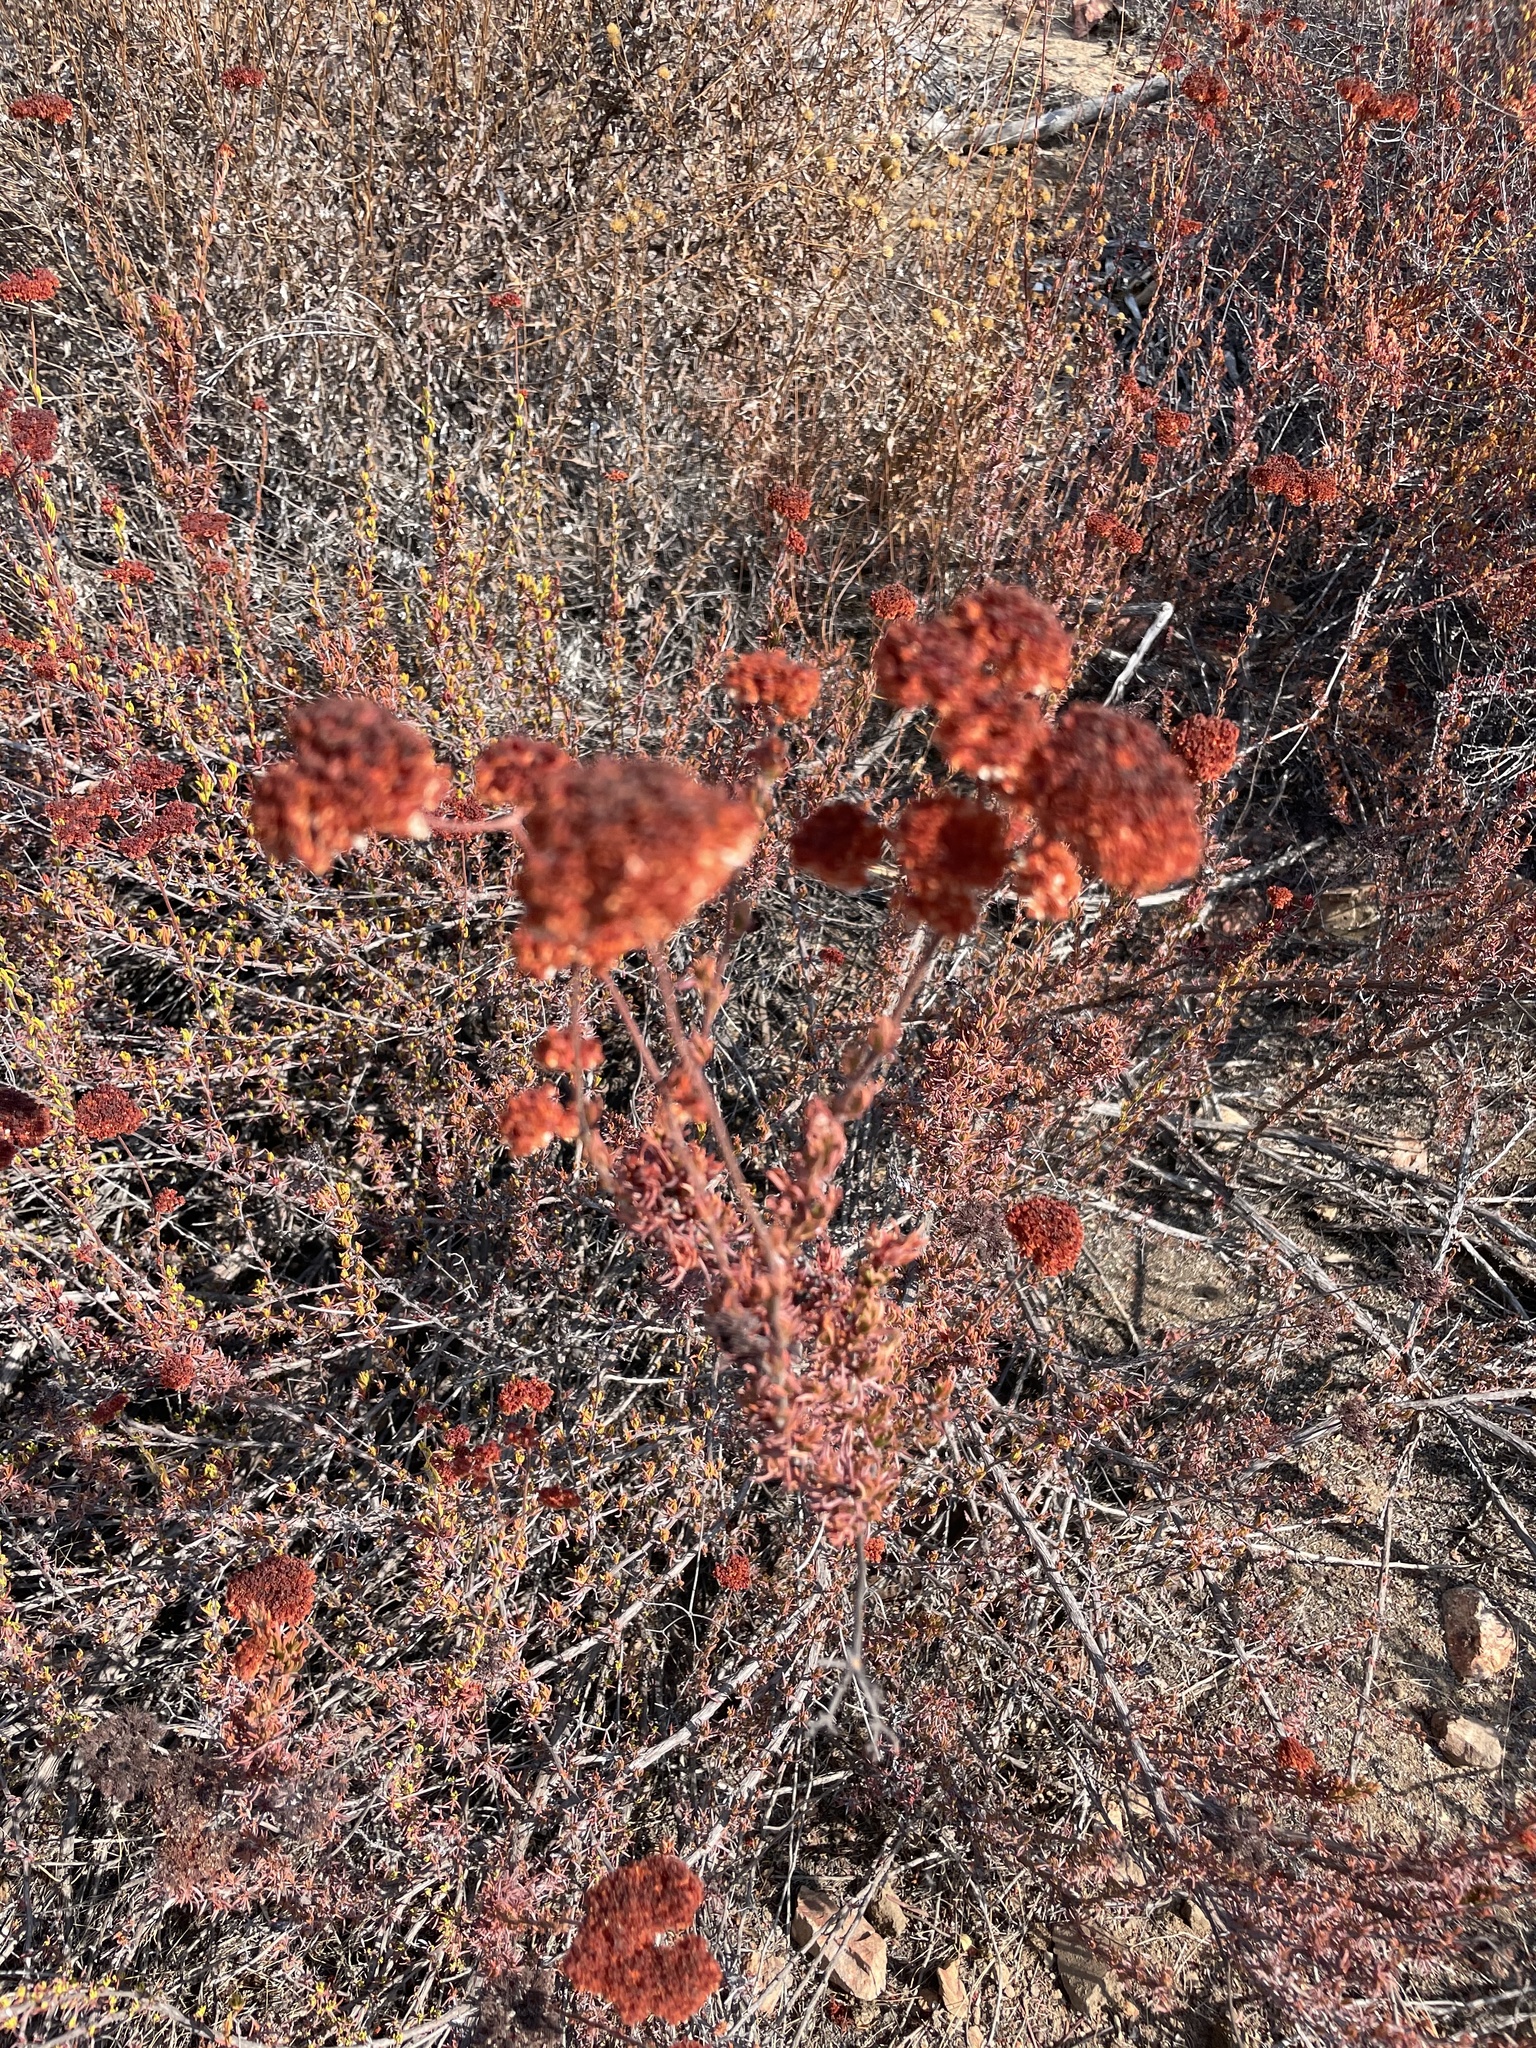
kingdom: Plantae
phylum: Tracheophyta
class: Magnoliopsida
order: Caryophyllales
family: Polygonaceae
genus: Eriogonum
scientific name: Eriogonum fasciculatum
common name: California wild buckwheat
